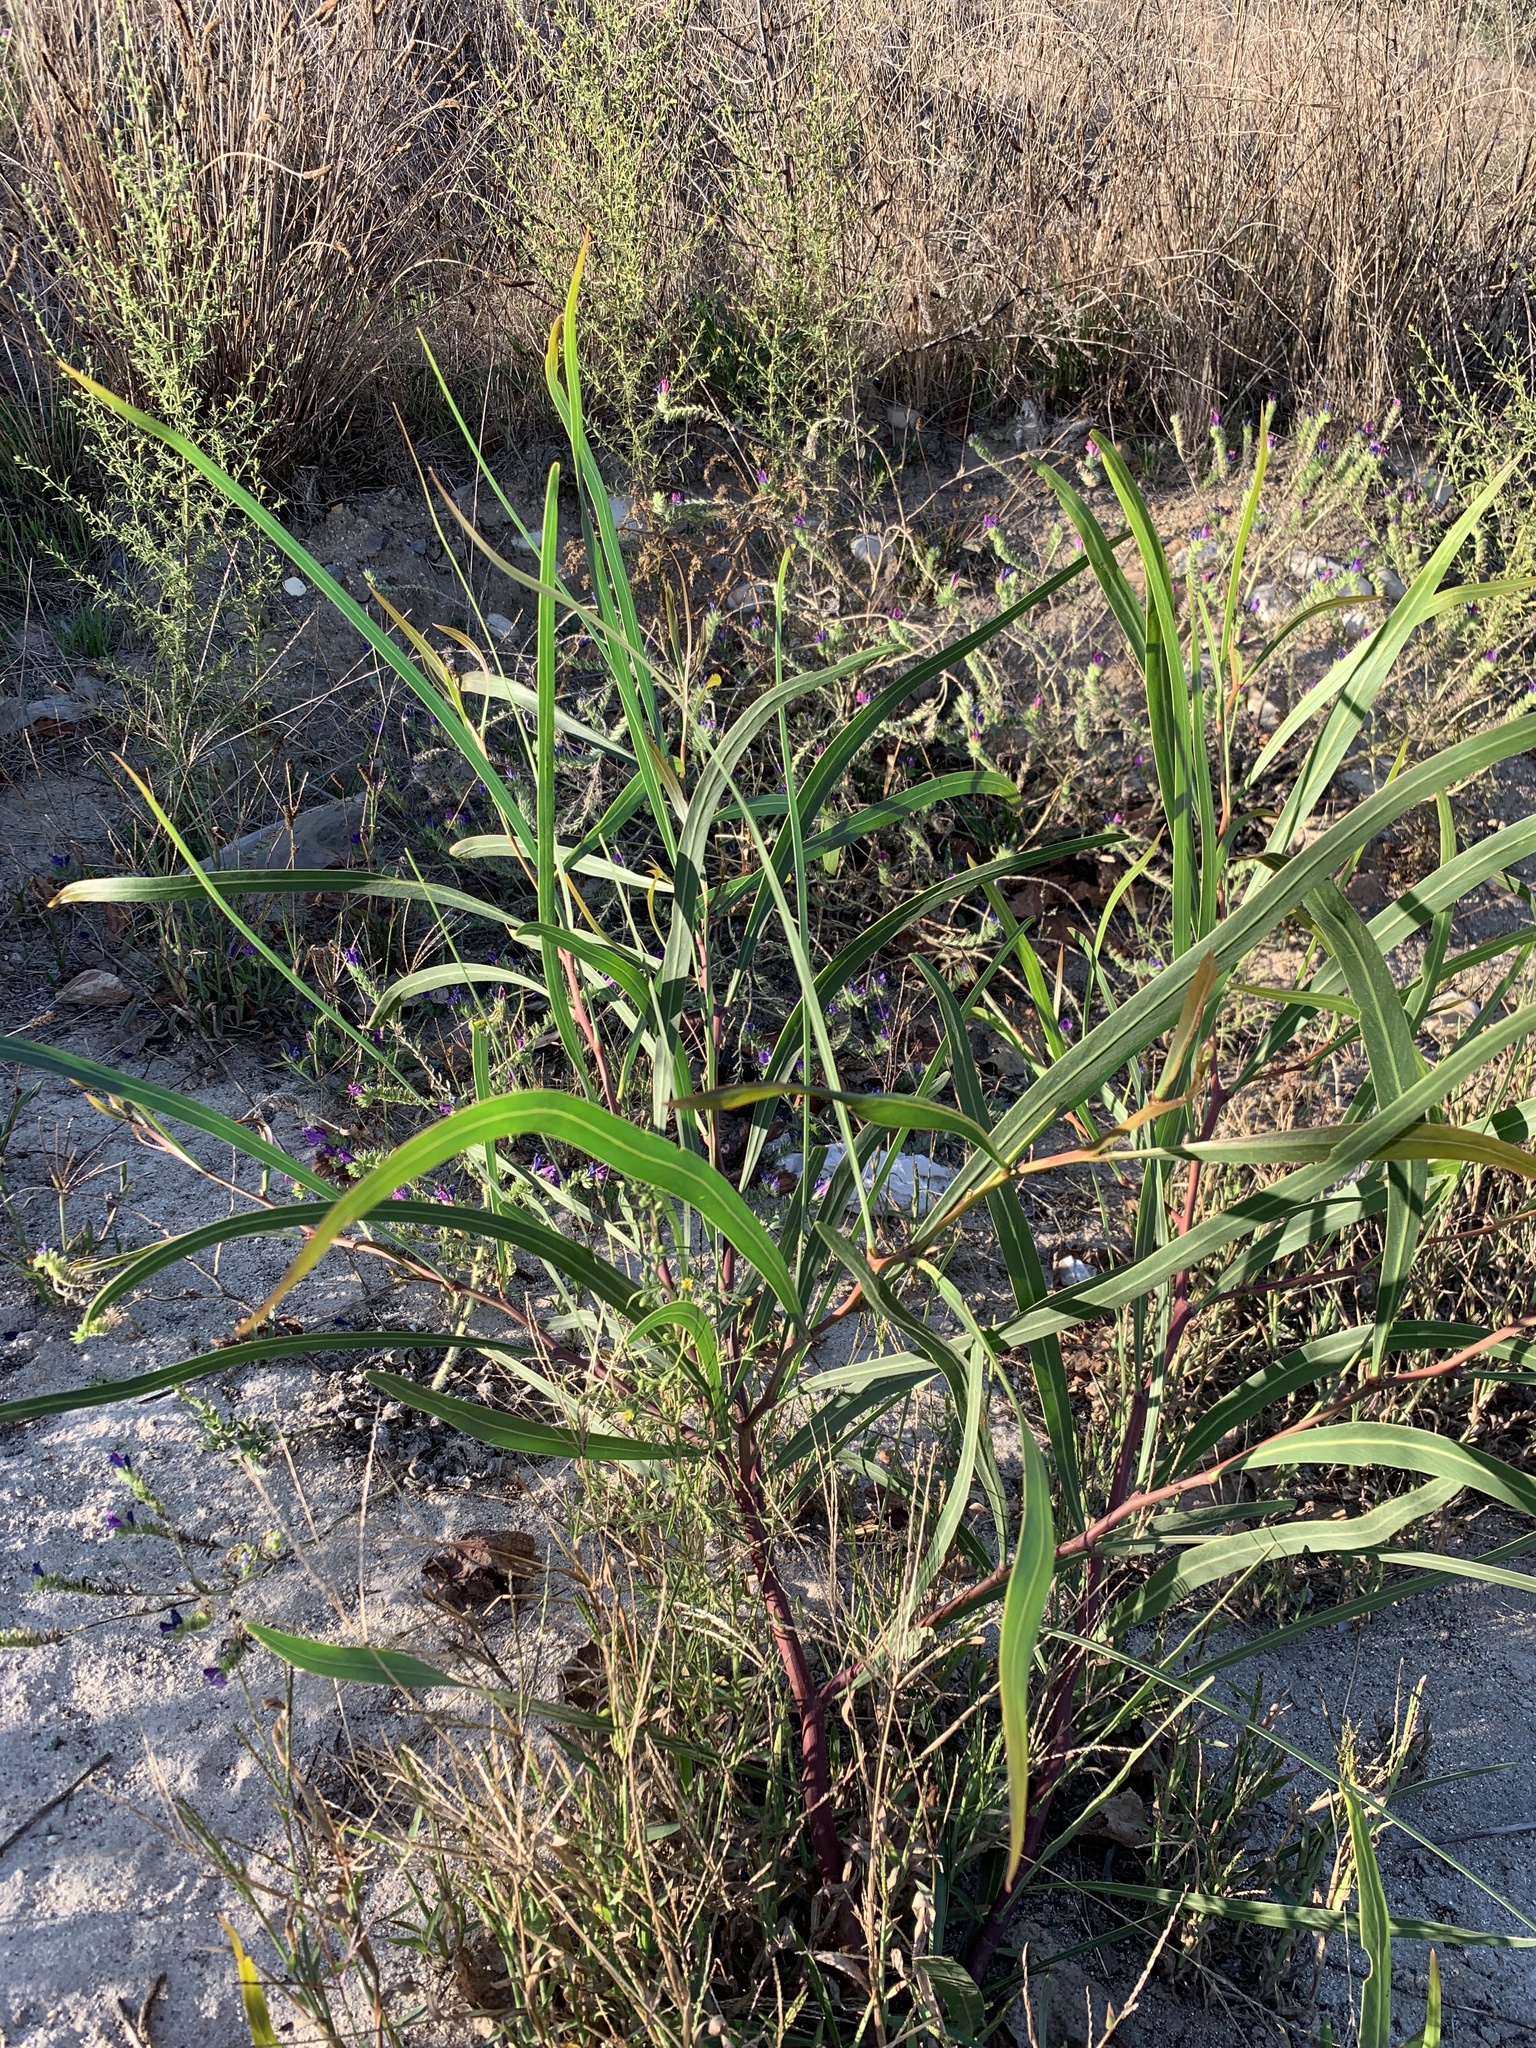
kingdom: Plantae
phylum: Tracheophyta
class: Magnoliopsida
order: Fabales
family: Fabaceae
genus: Acacia
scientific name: Acacia saligna
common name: Orange wattle
